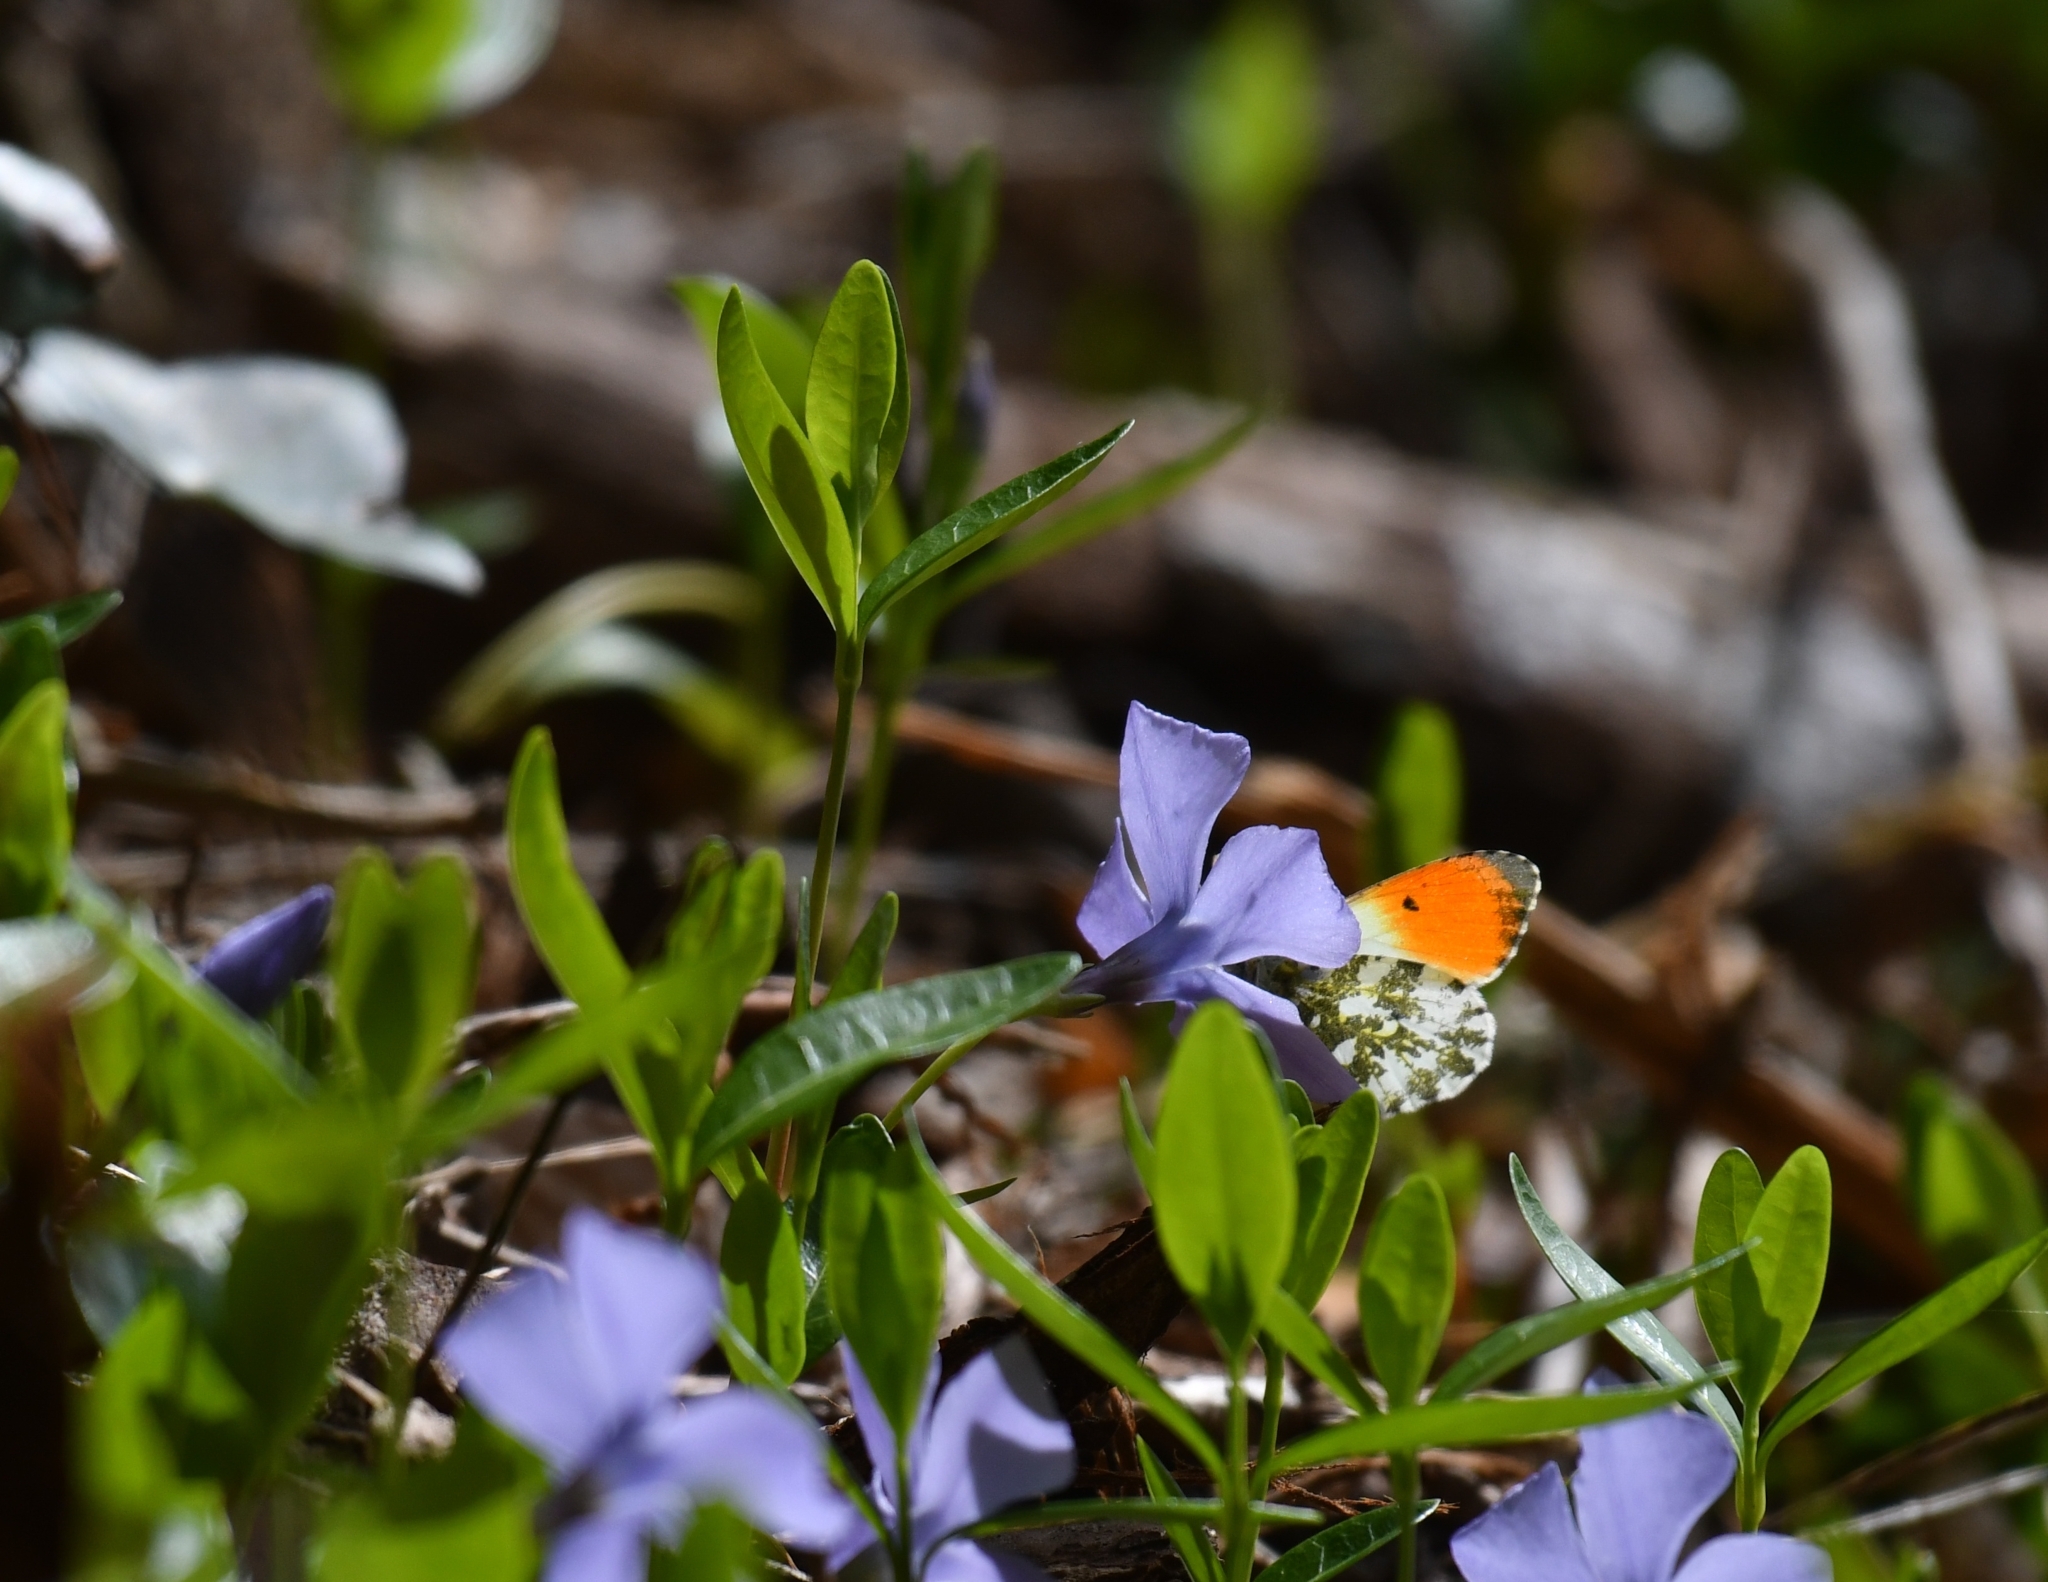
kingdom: Animalia
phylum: Arthropoda
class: Insecta
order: Lepidoptera
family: Pieridae
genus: Anthocharis
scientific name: Anthocharis cardamines
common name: Orange-tip
